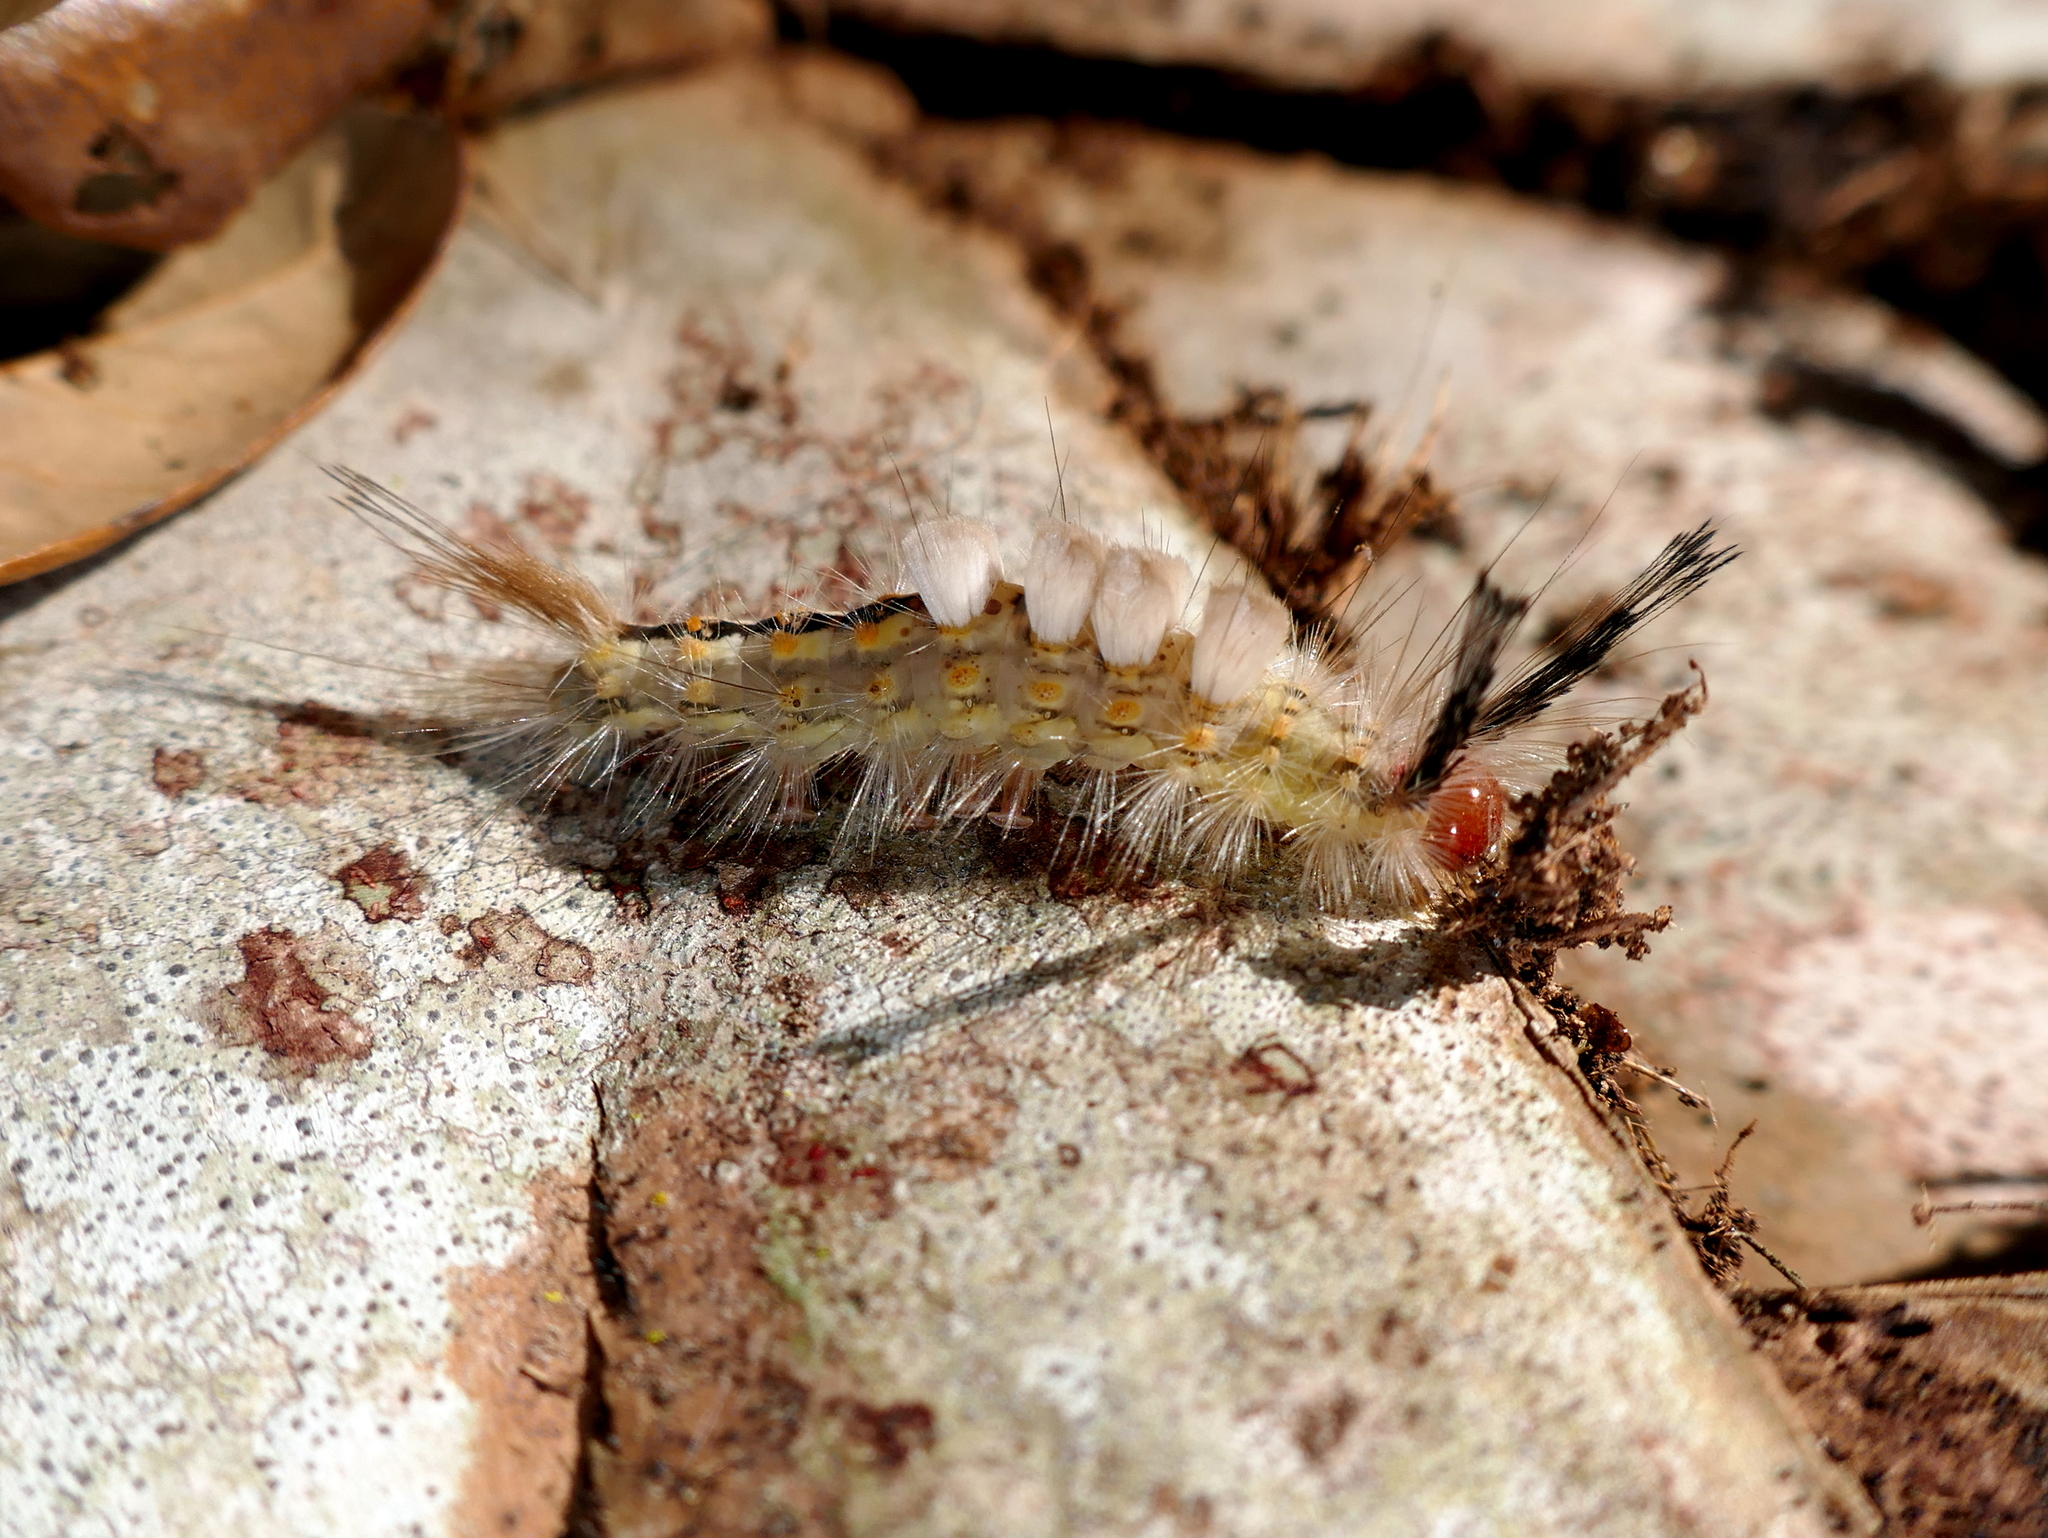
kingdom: Animalia
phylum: Arthropoda
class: Insecta
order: Lepidoptera
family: Erebidae
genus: Orgyia
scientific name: Orgyia detrita
